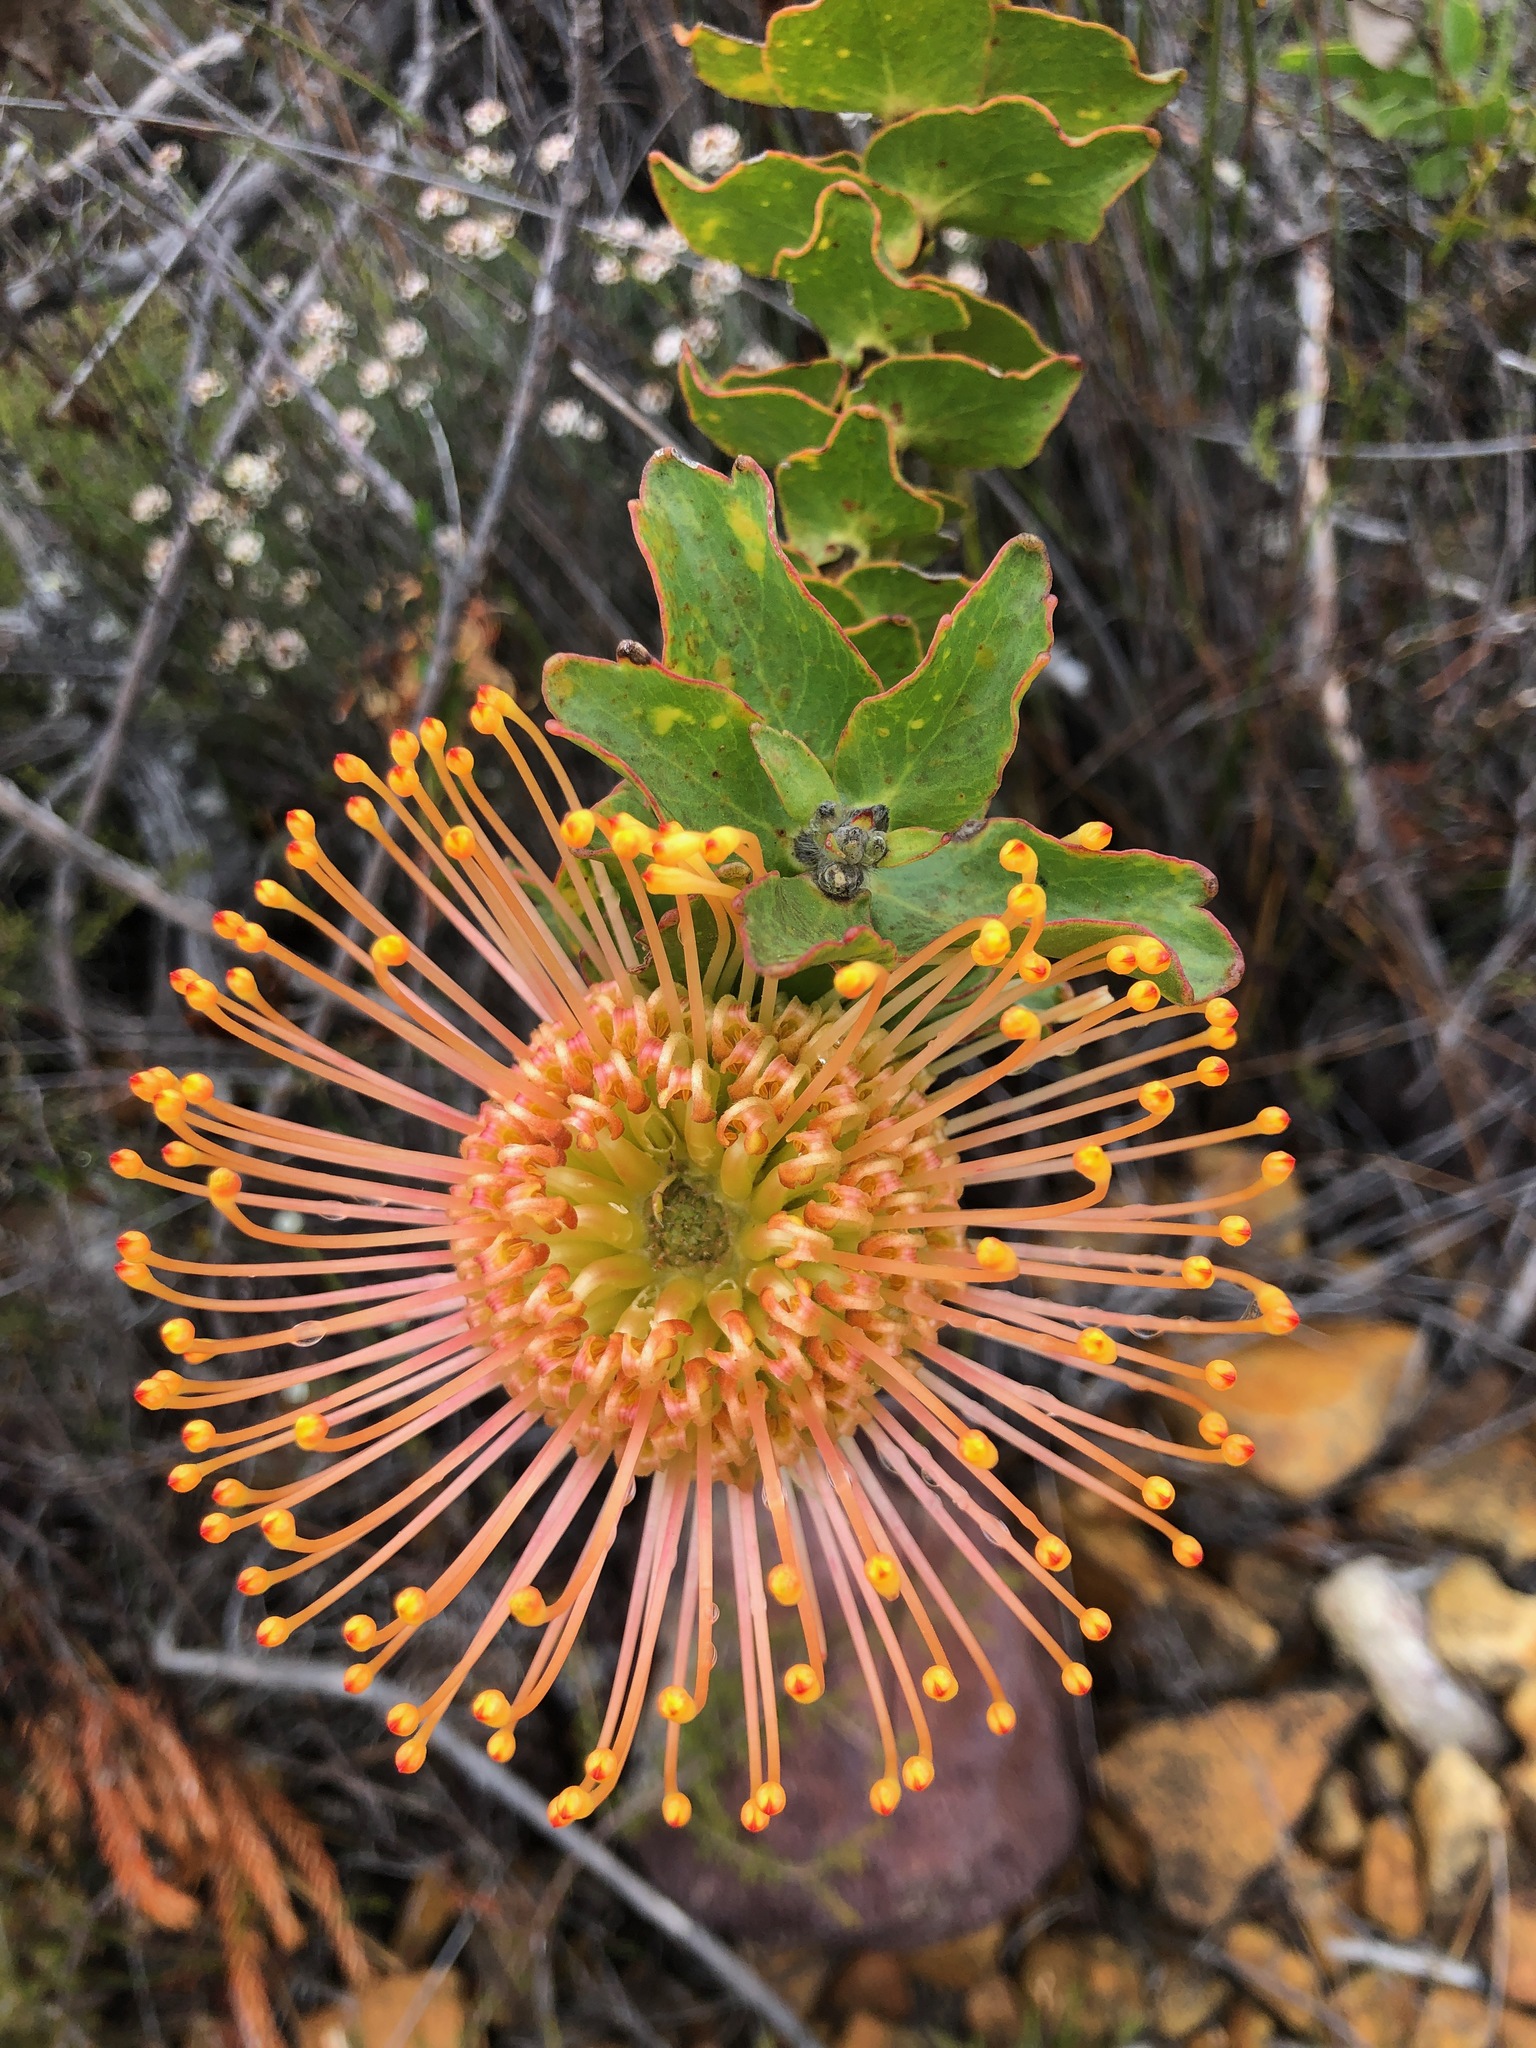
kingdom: Plantae
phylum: Tracheophyta
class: Magnoliopsida
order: Proteales
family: Proteaceae
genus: Leucospermum
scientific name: Leucospermum cordifolium
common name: Red pincushion-protea
